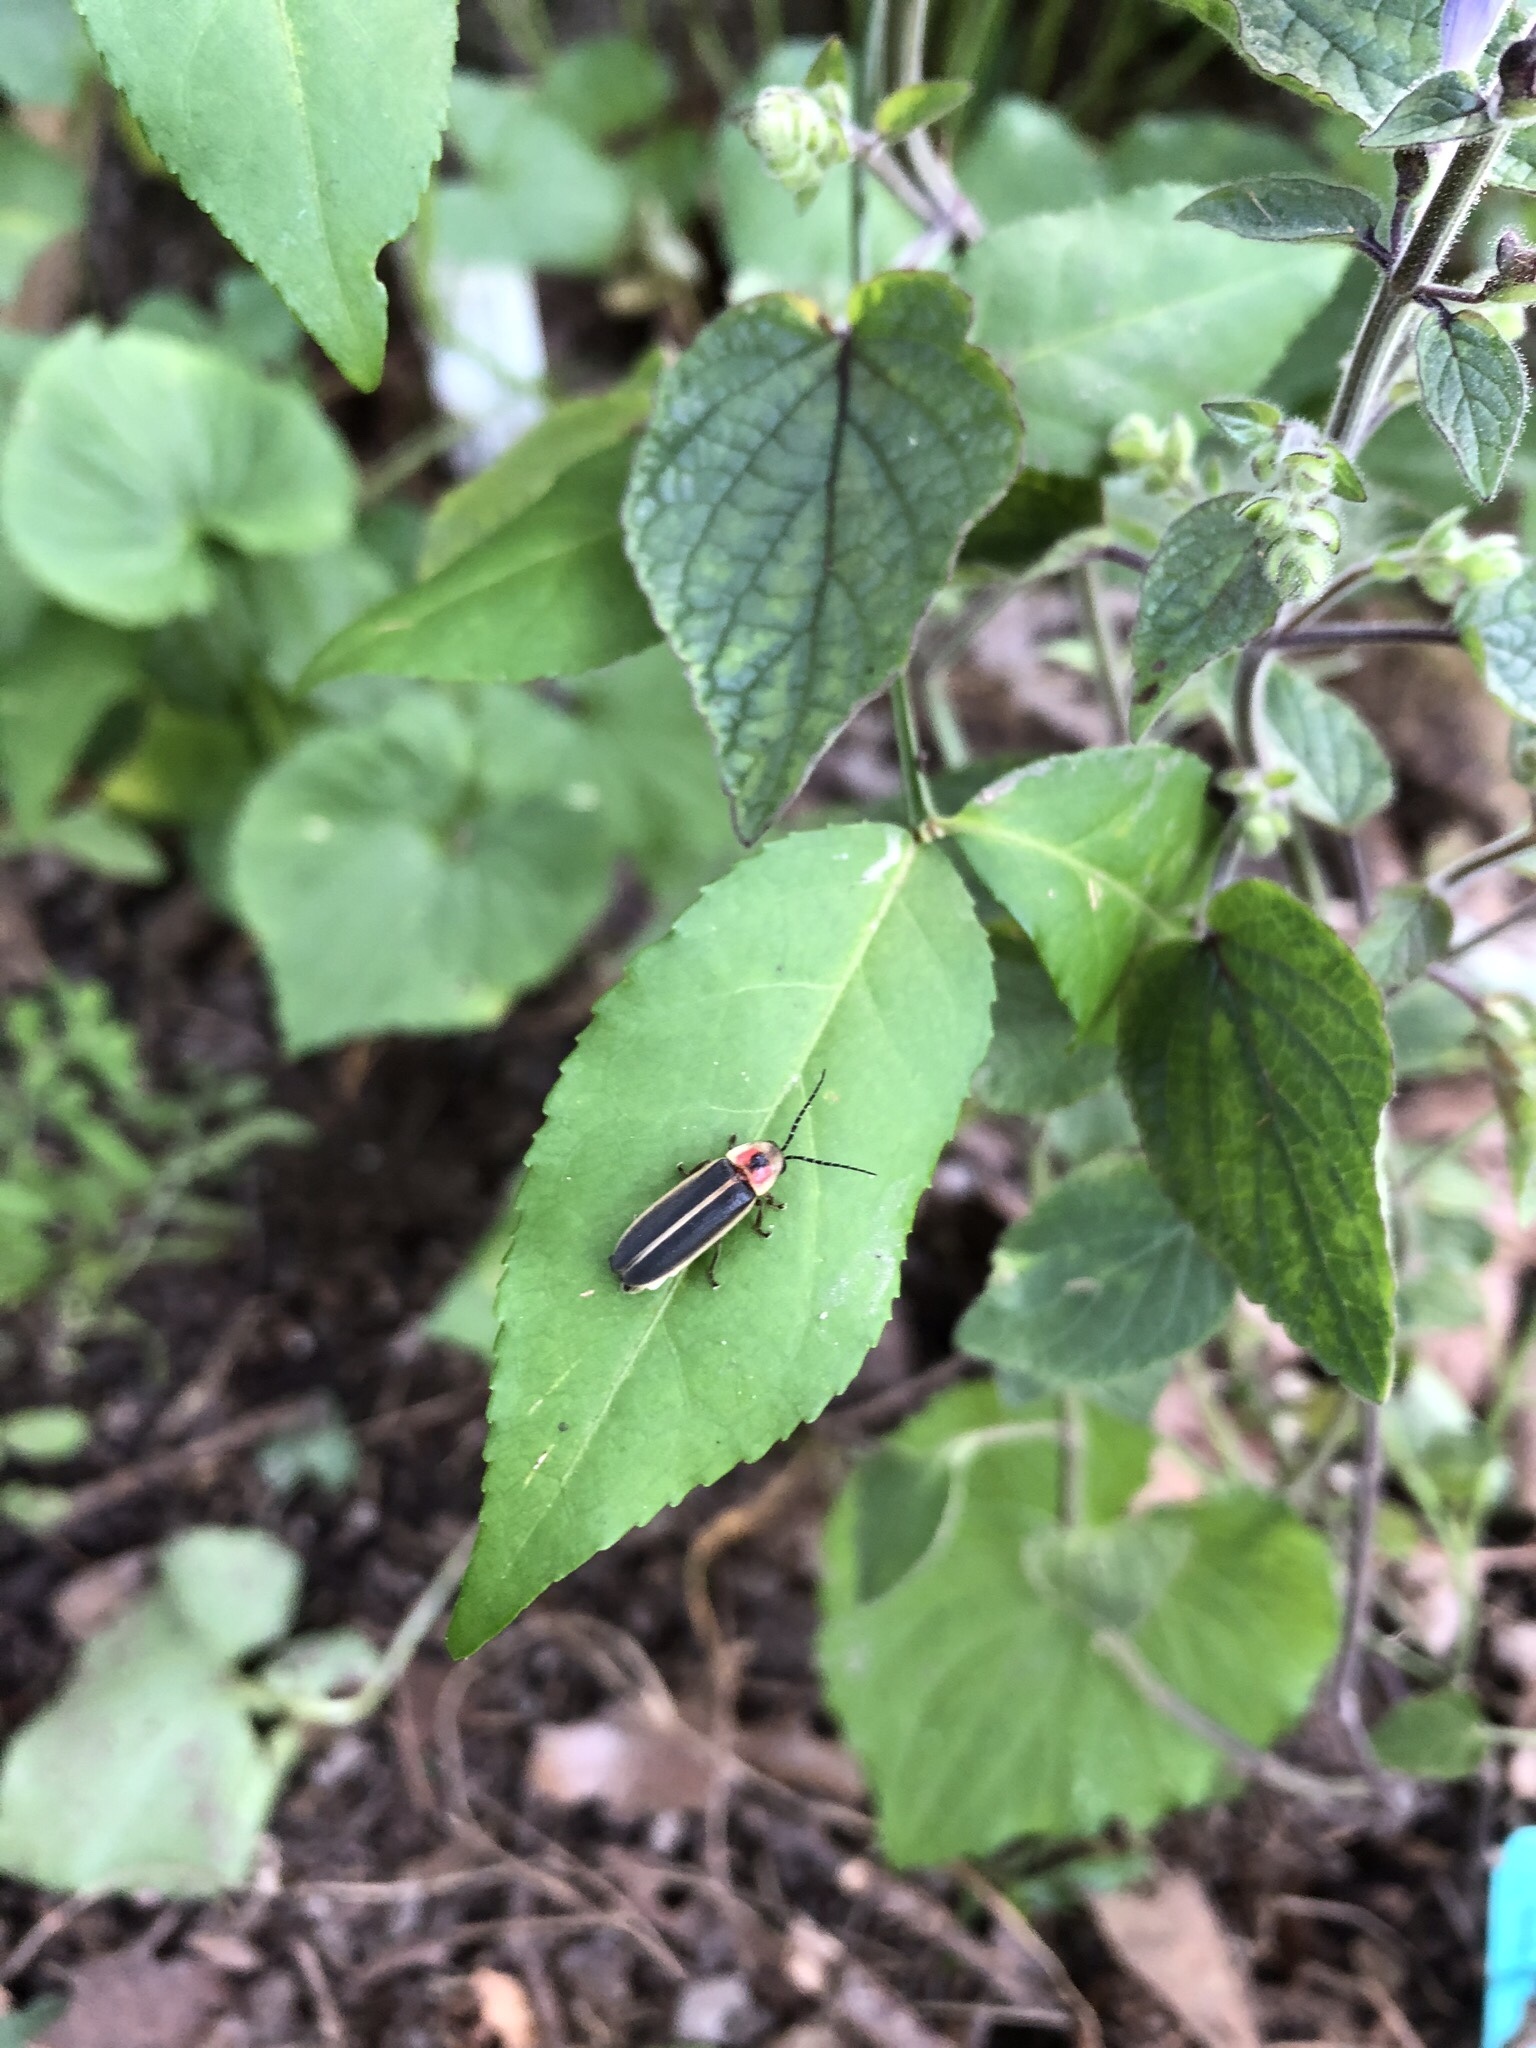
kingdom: Animalia
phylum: Arthropoda
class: Insecta
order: Coleoptera
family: Lampyridae
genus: Photinus
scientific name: Photinus pyralis
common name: Big dipper firefly
